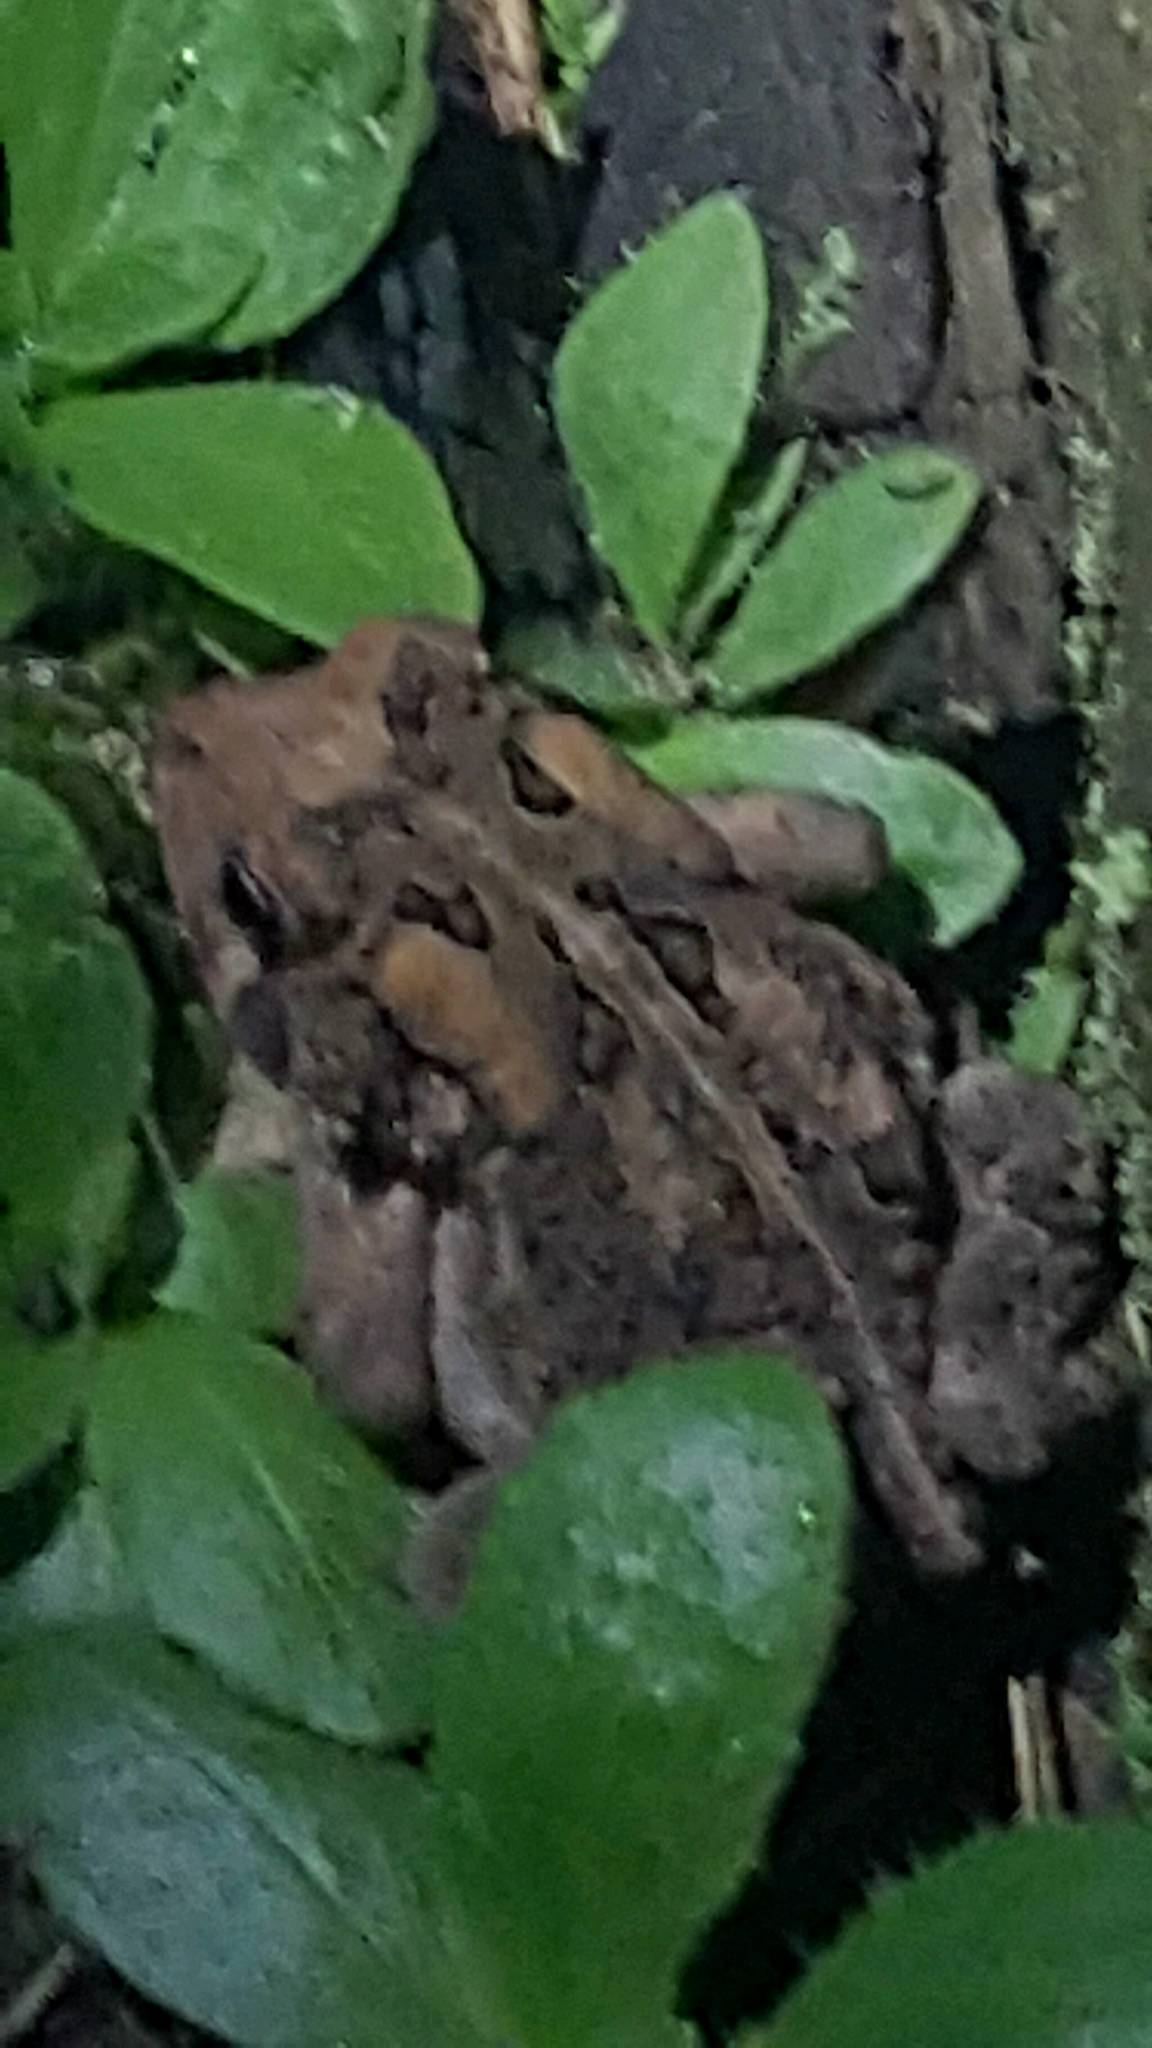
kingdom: Animalia
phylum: Chordata
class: Amphibia
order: Anura
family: Bufonidae
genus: Anaxyrus
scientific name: Anaxyrus americanus
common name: American toad
